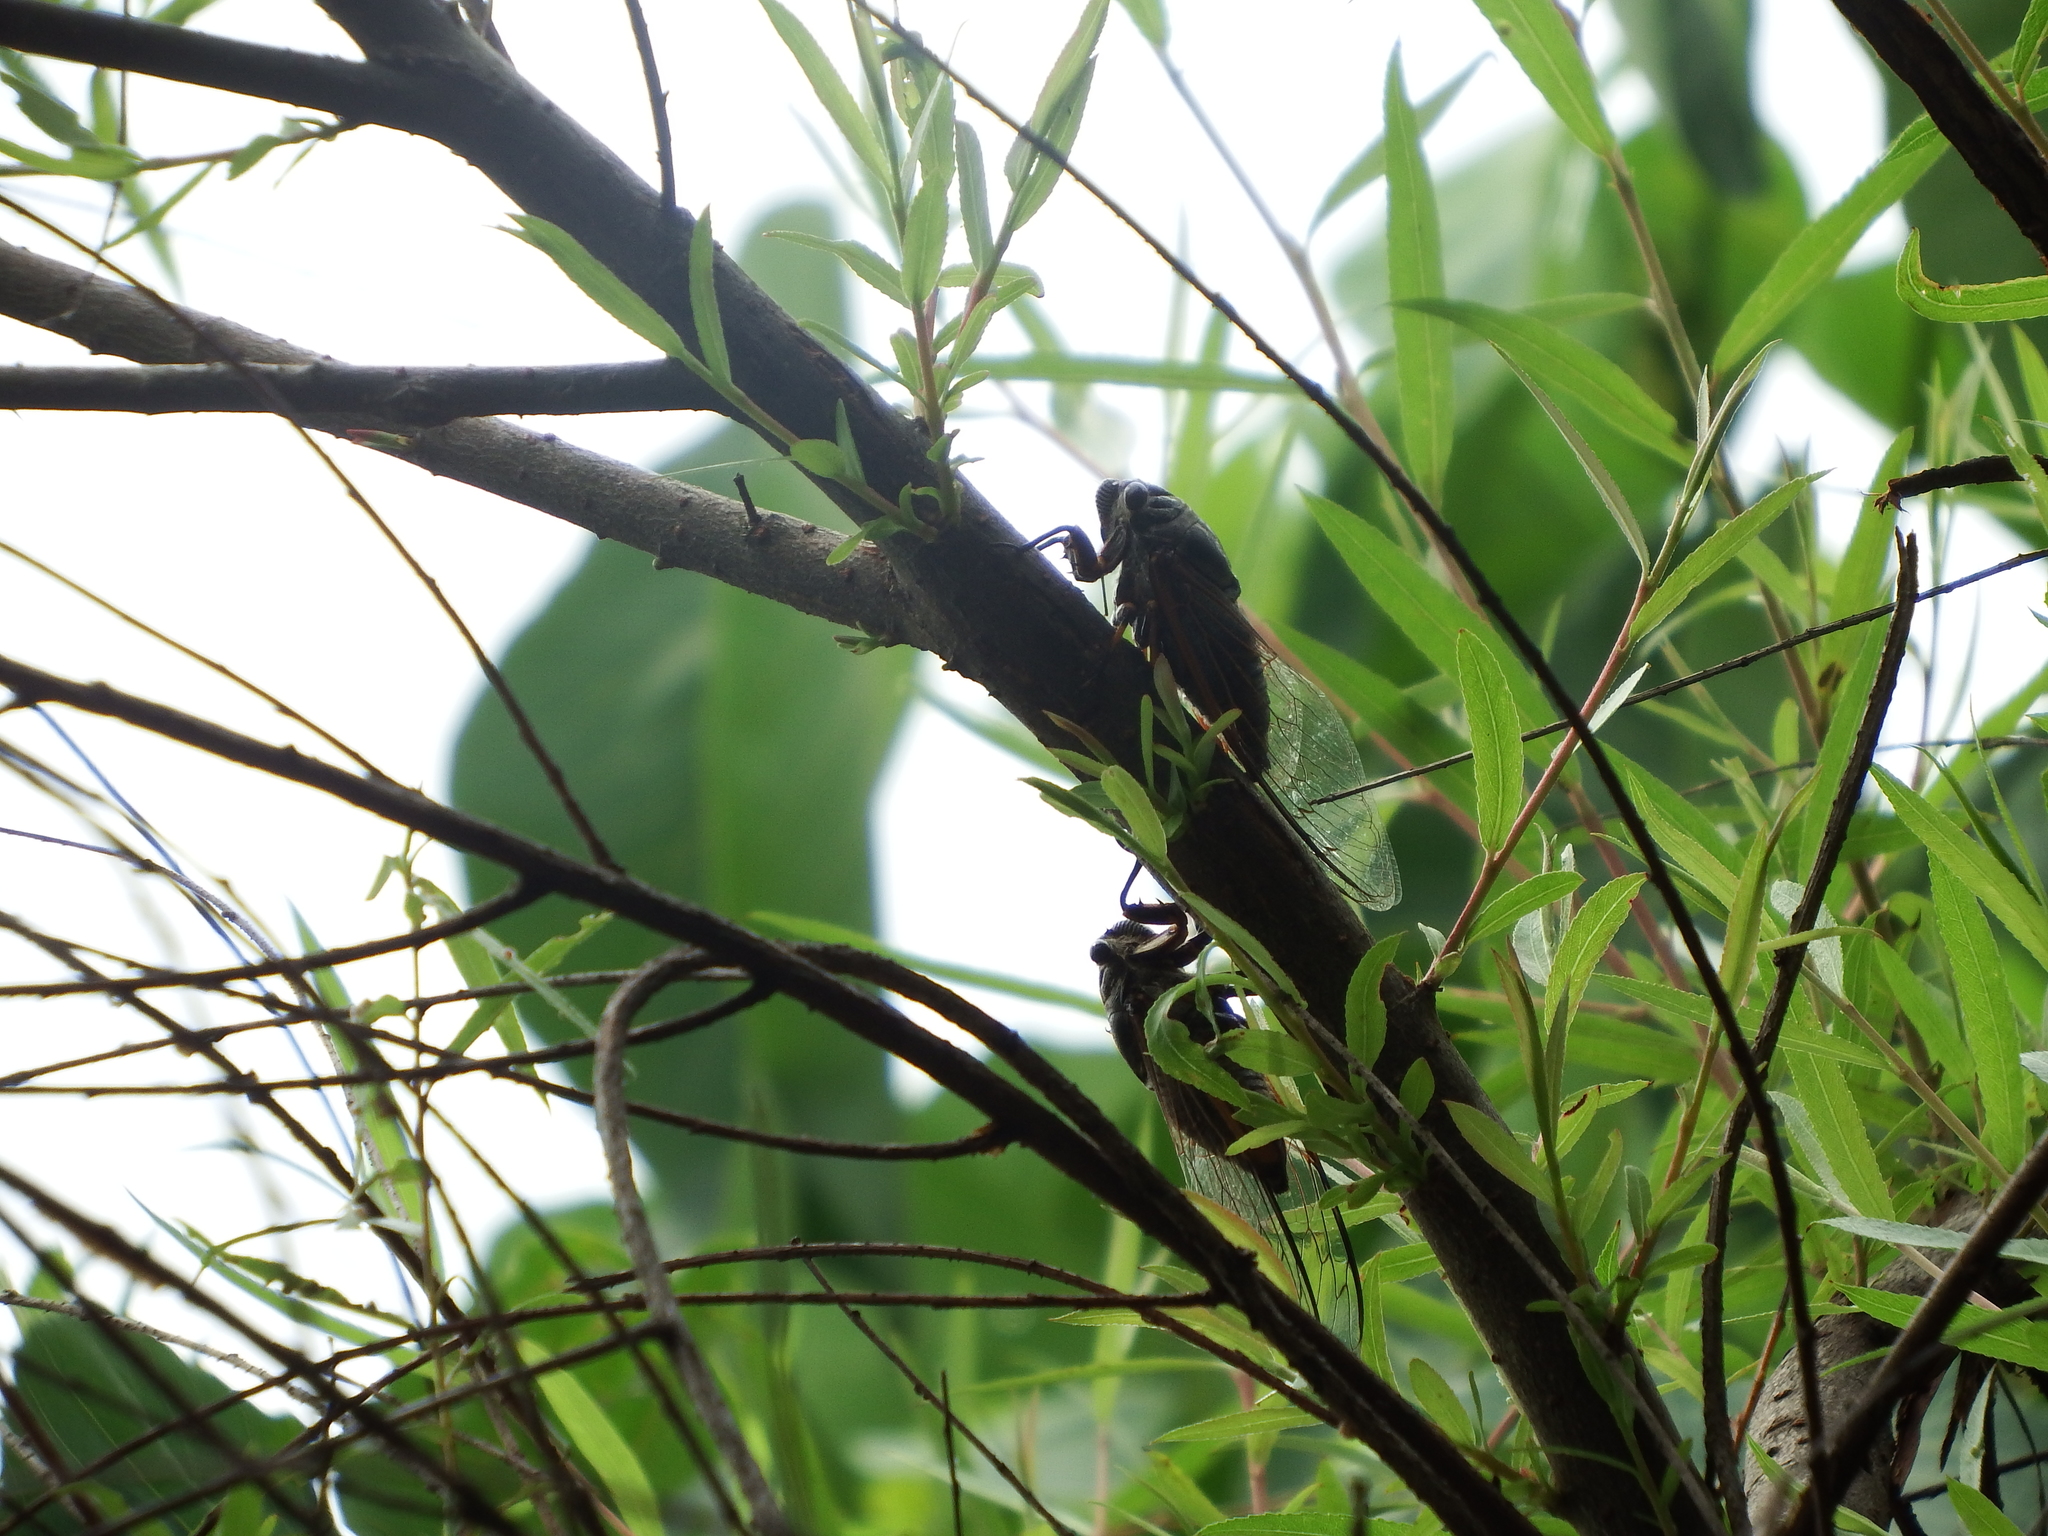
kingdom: Animalia
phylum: Arthropoda
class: Insecta
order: Hemiptera
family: Cicadidae
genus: Cryptotympana
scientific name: Cryptotympana atrata
